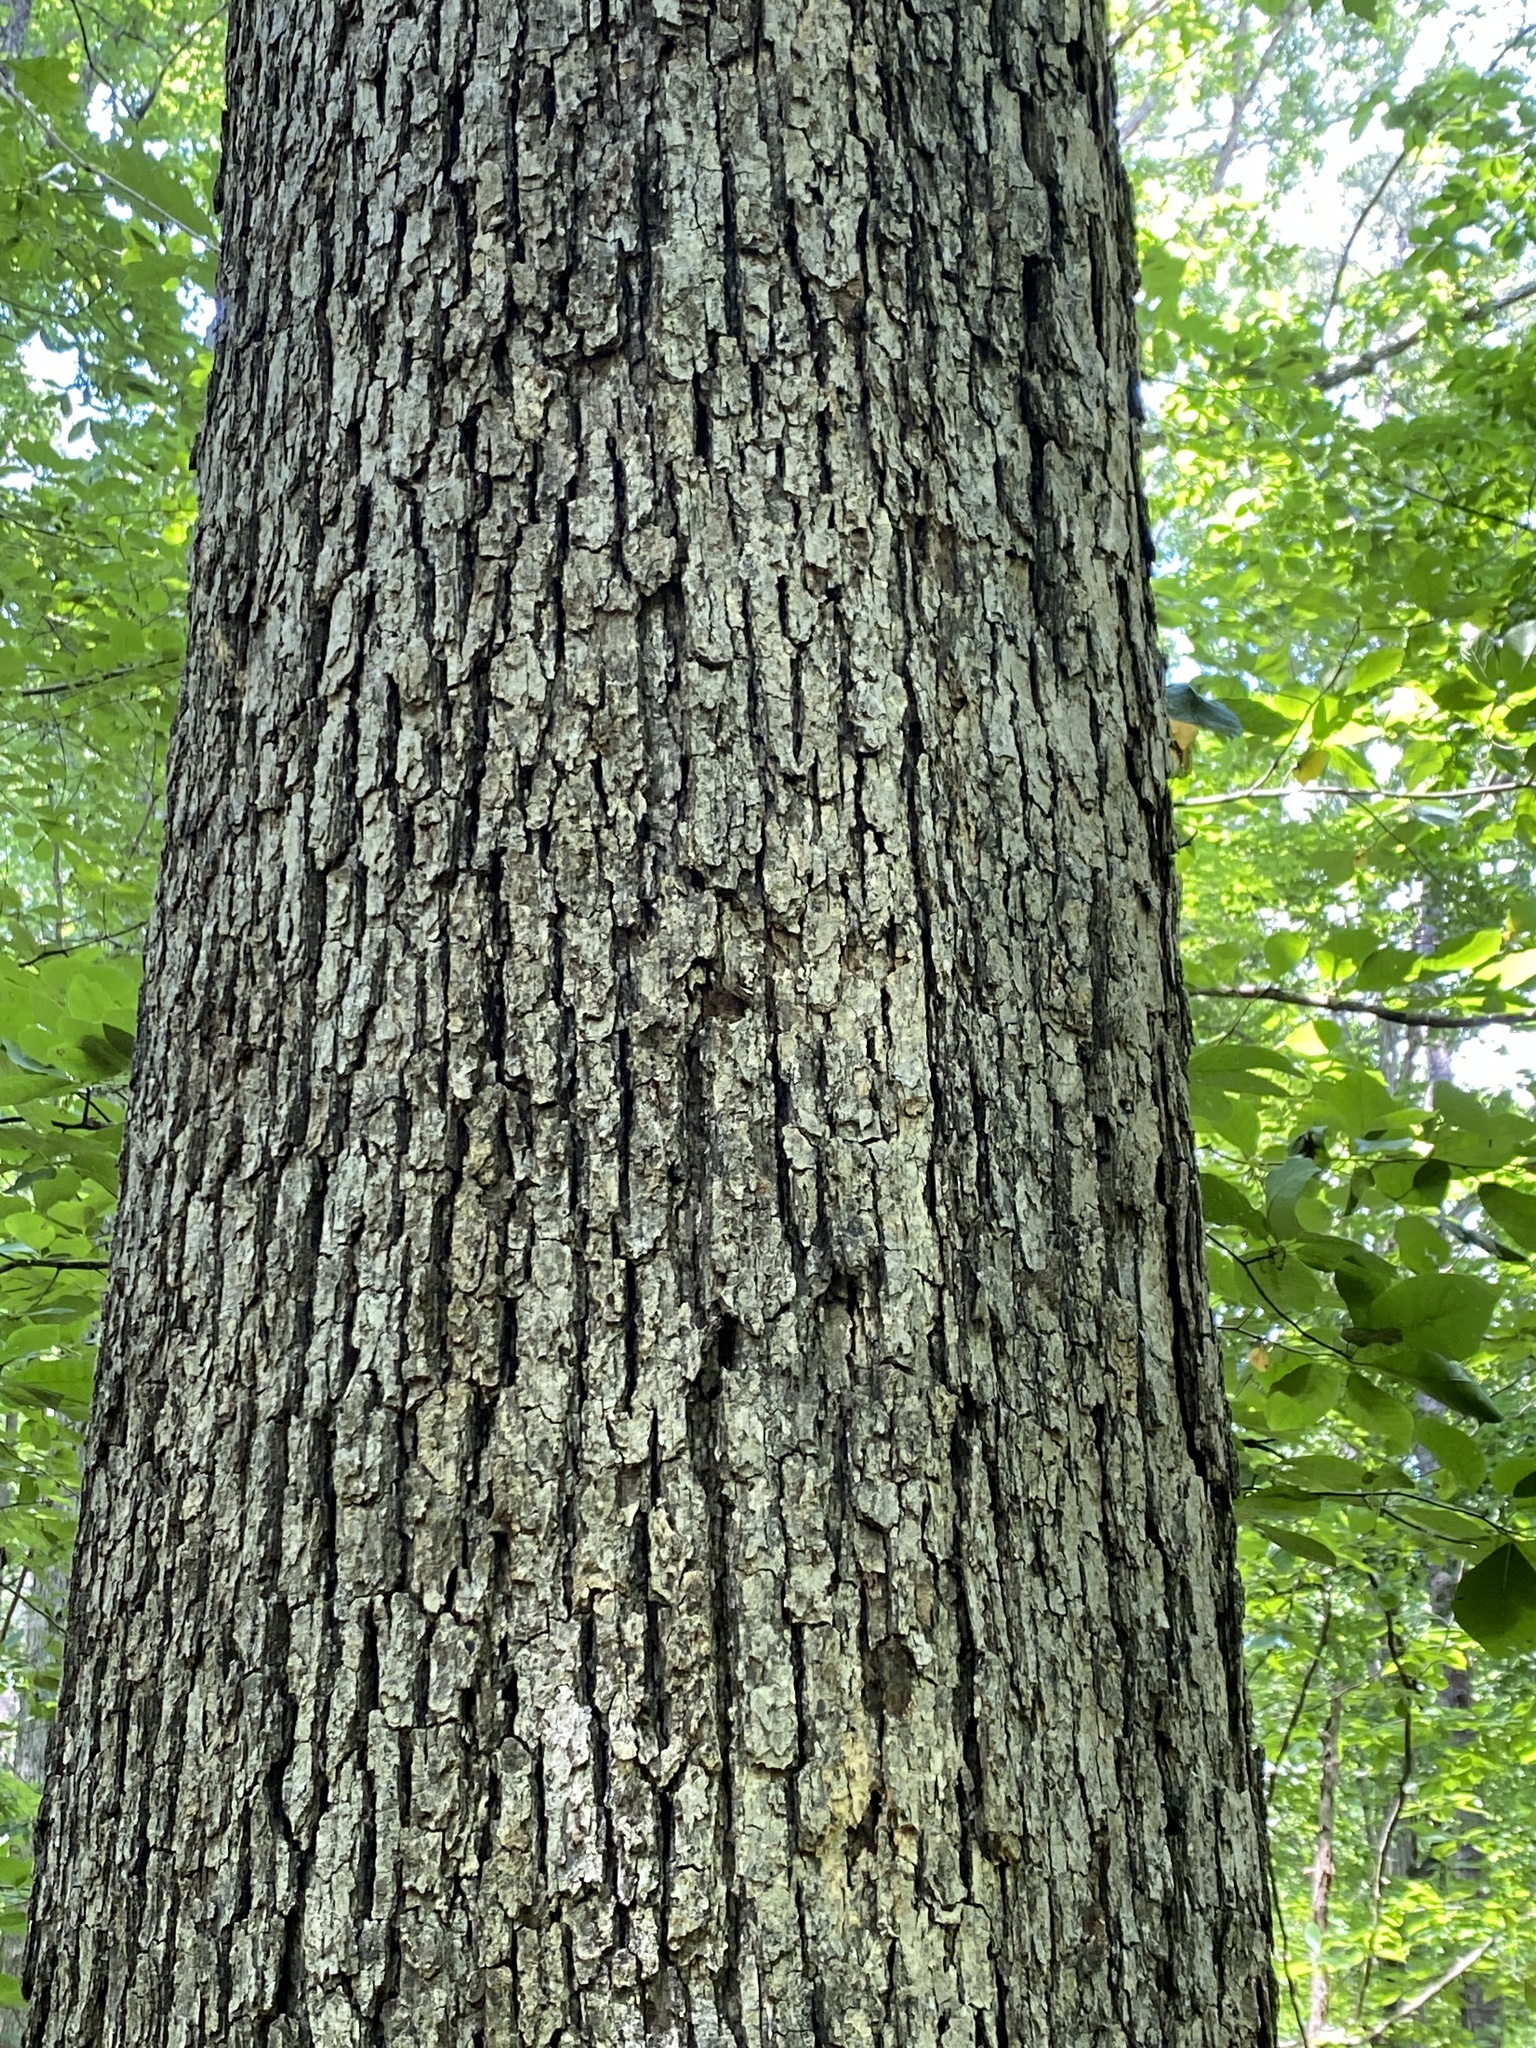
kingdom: Plantae
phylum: Tracheophyta
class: Magnoliopsida
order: Fagales
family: Fagaceae
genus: Quercus
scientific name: Quercus alba
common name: White oak
